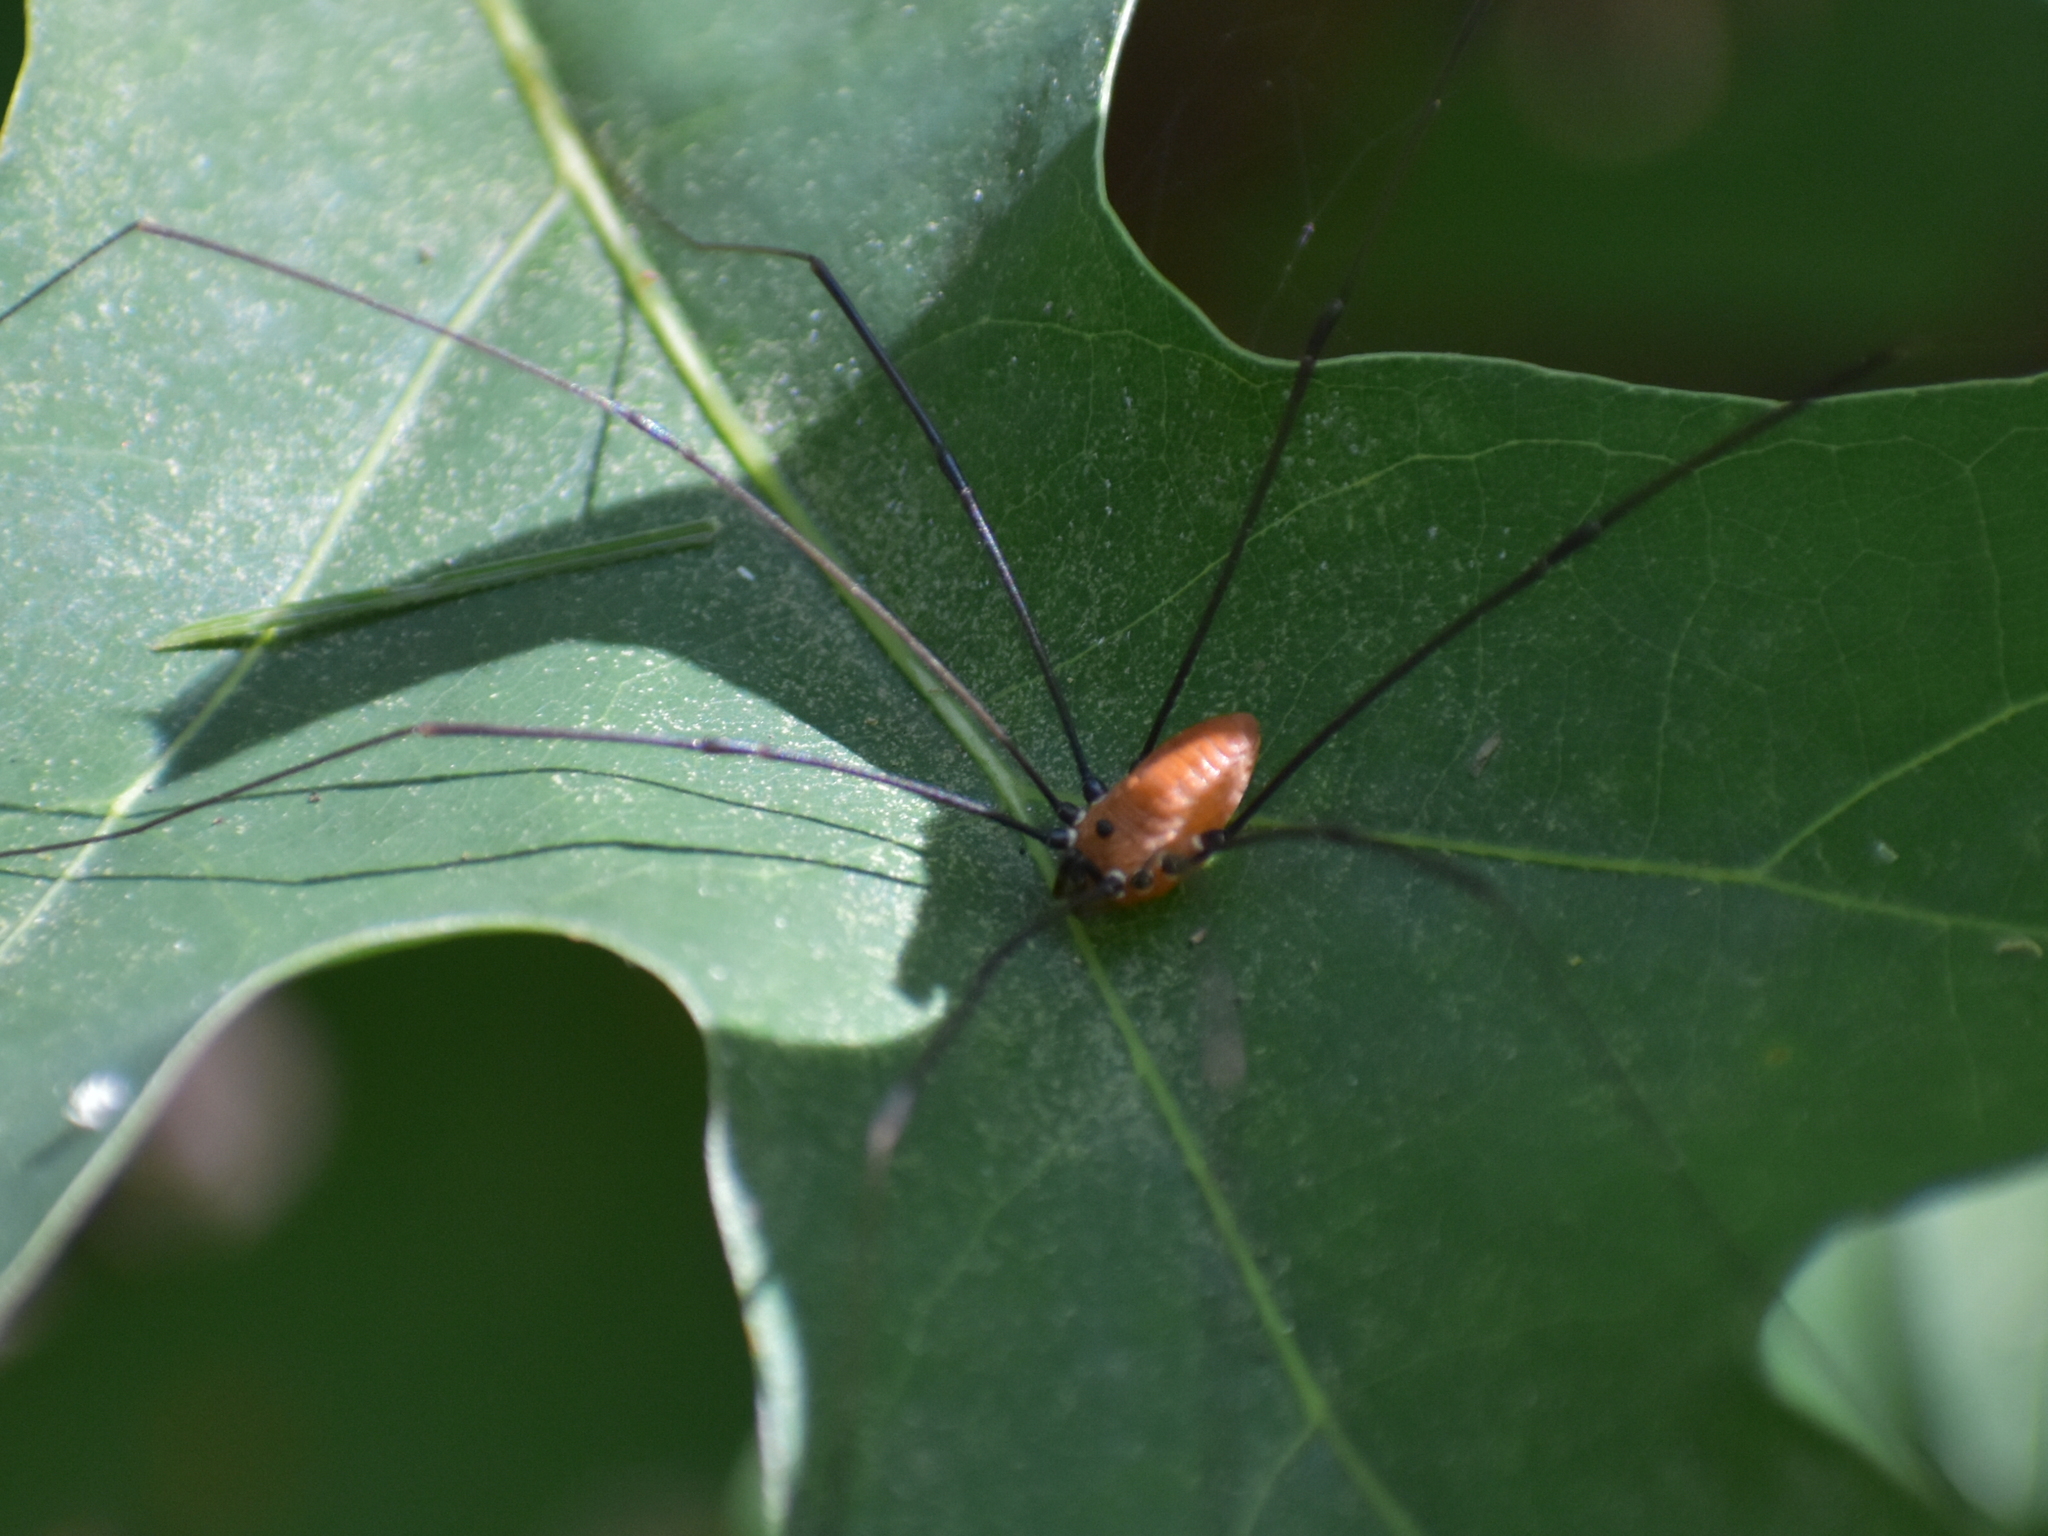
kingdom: Animalia
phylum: Arthropoda
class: Arachnida
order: Opiliones
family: Sclerosomatidae
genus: Leiobunum
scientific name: Leiobunum nigropalpi
